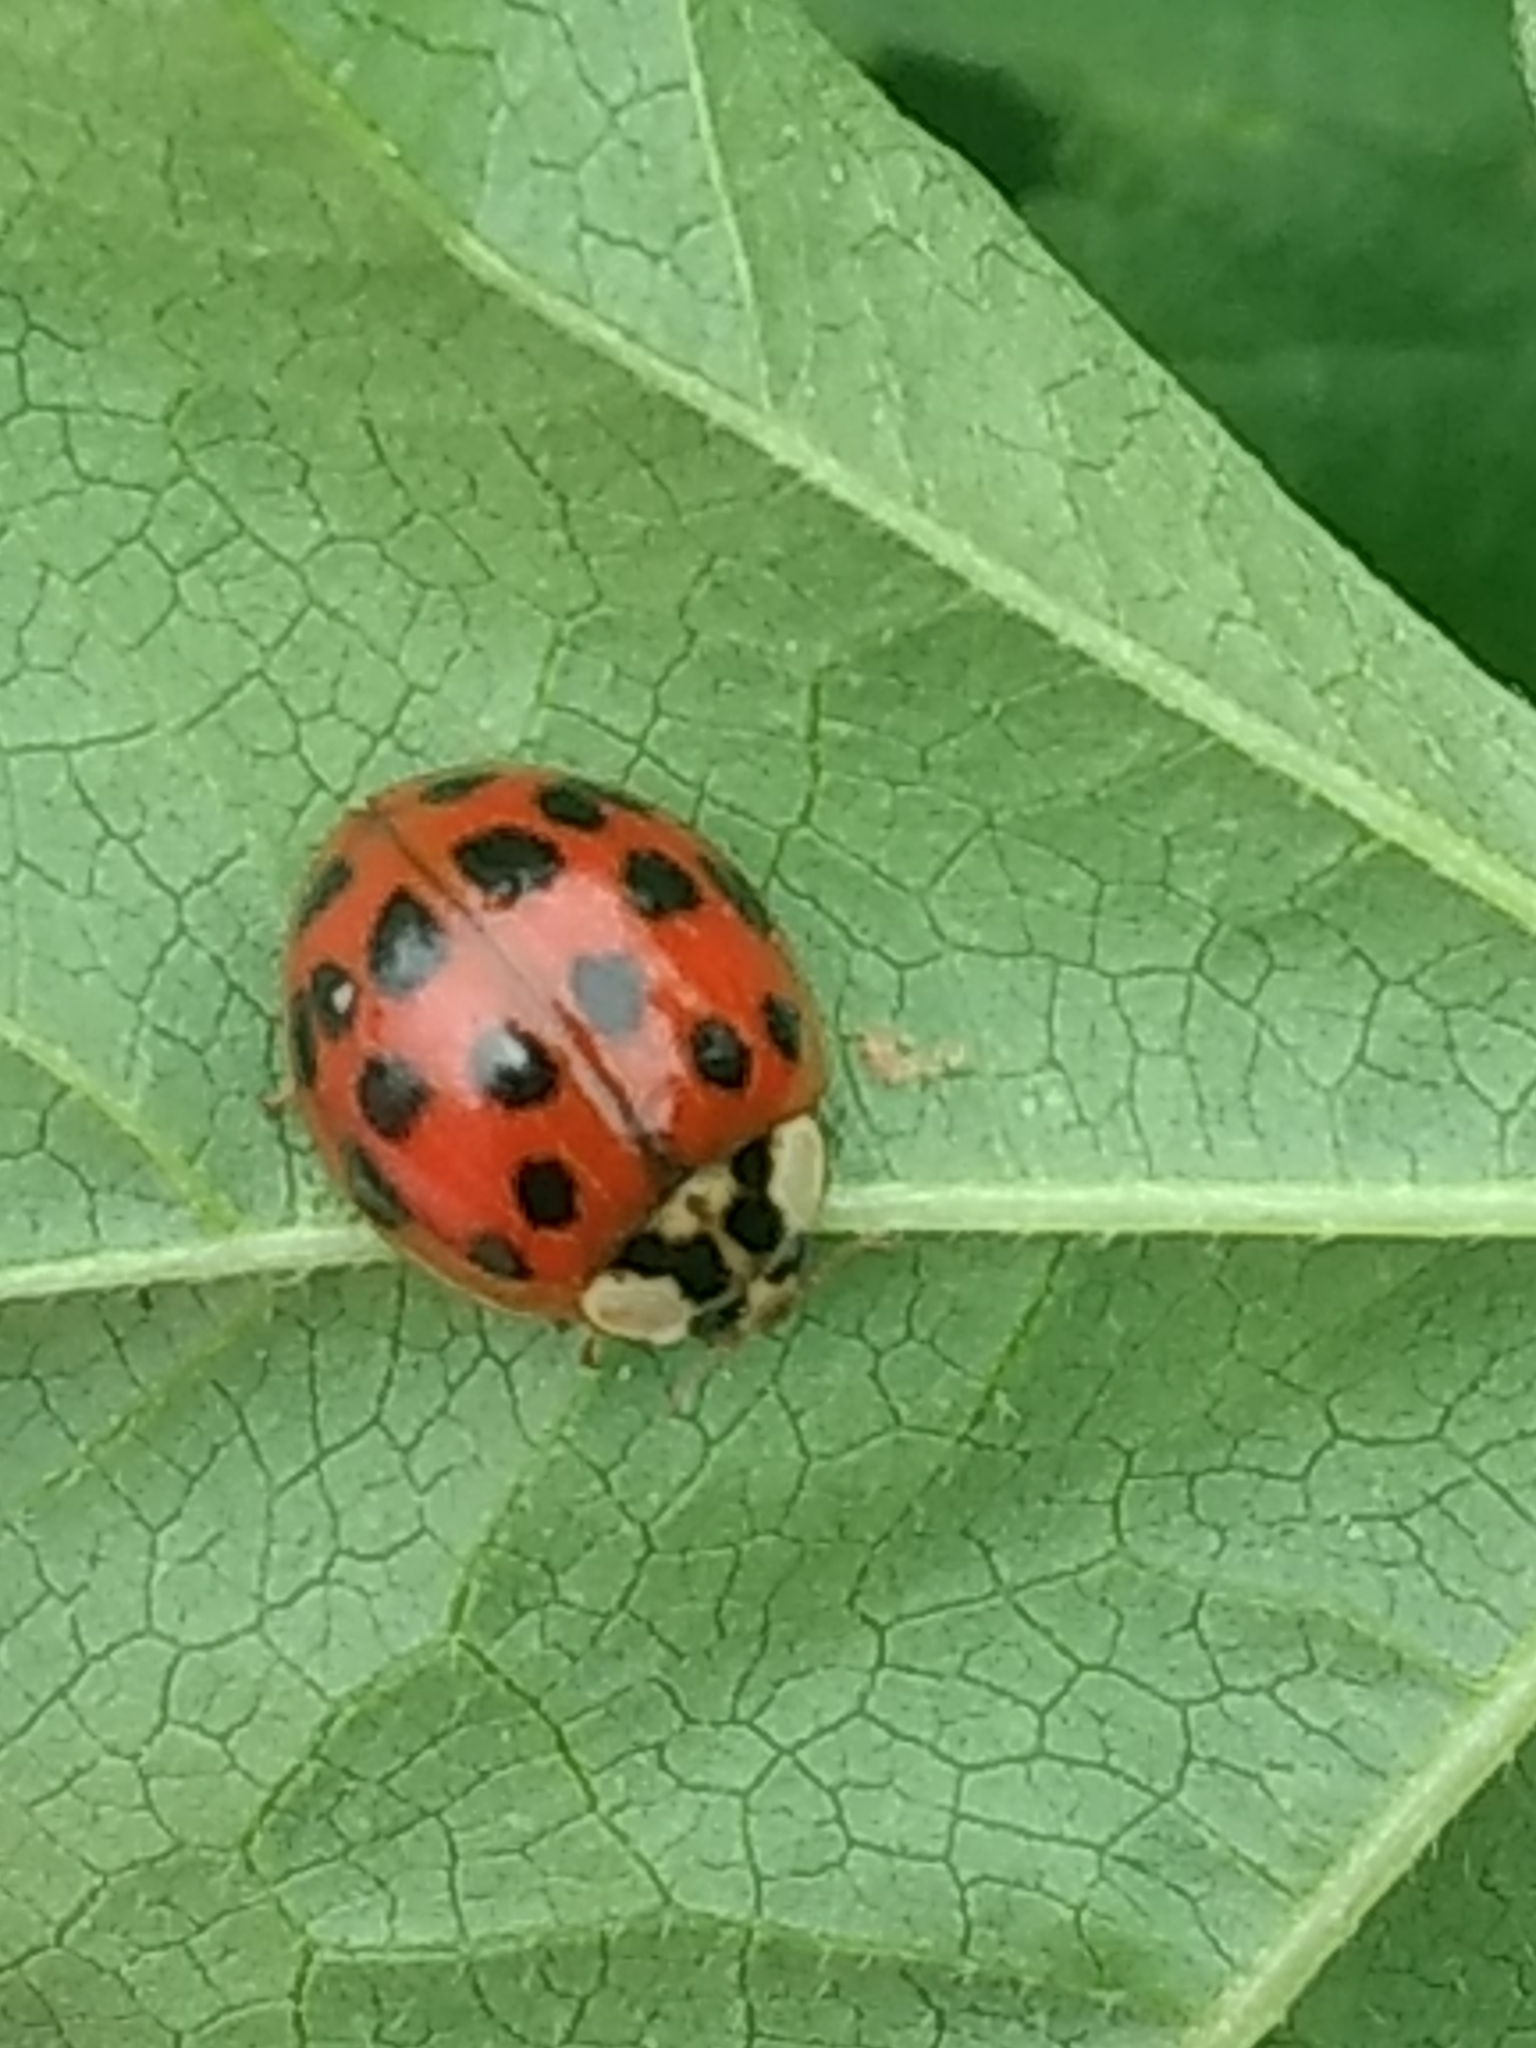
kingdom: Animalia
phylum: Arthropoda
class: Insecta
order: Coleoptera
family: Coccinellidae
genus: Harmonia
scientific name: Harmonia axyridis
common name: Harlequin ladybird
